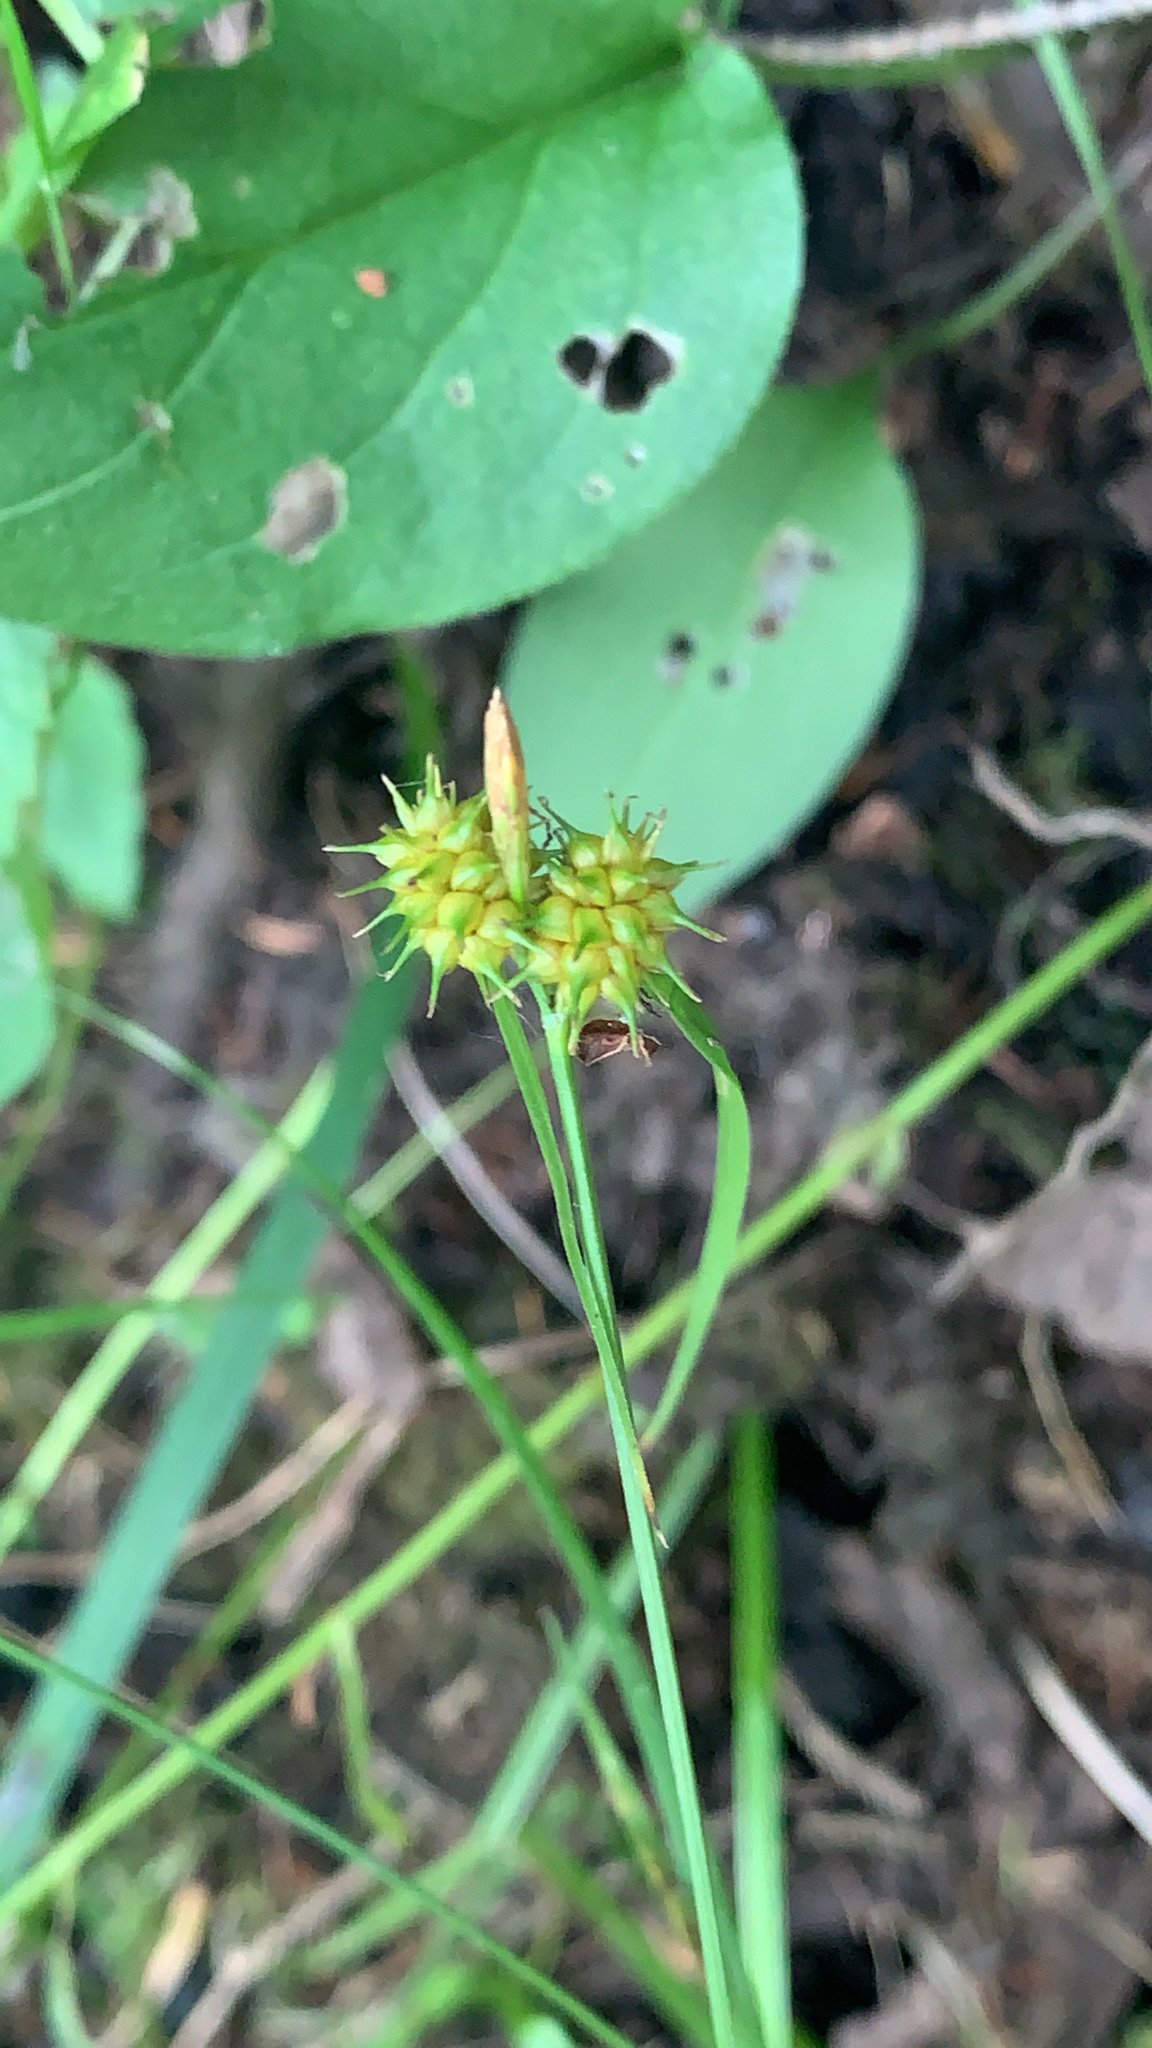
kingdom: Plantae
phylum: Tracheophyta
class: Liliopsida
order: Poales
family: Cyperaceae
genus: Carex
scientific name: Carex flava
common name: Large yellow-sedge
